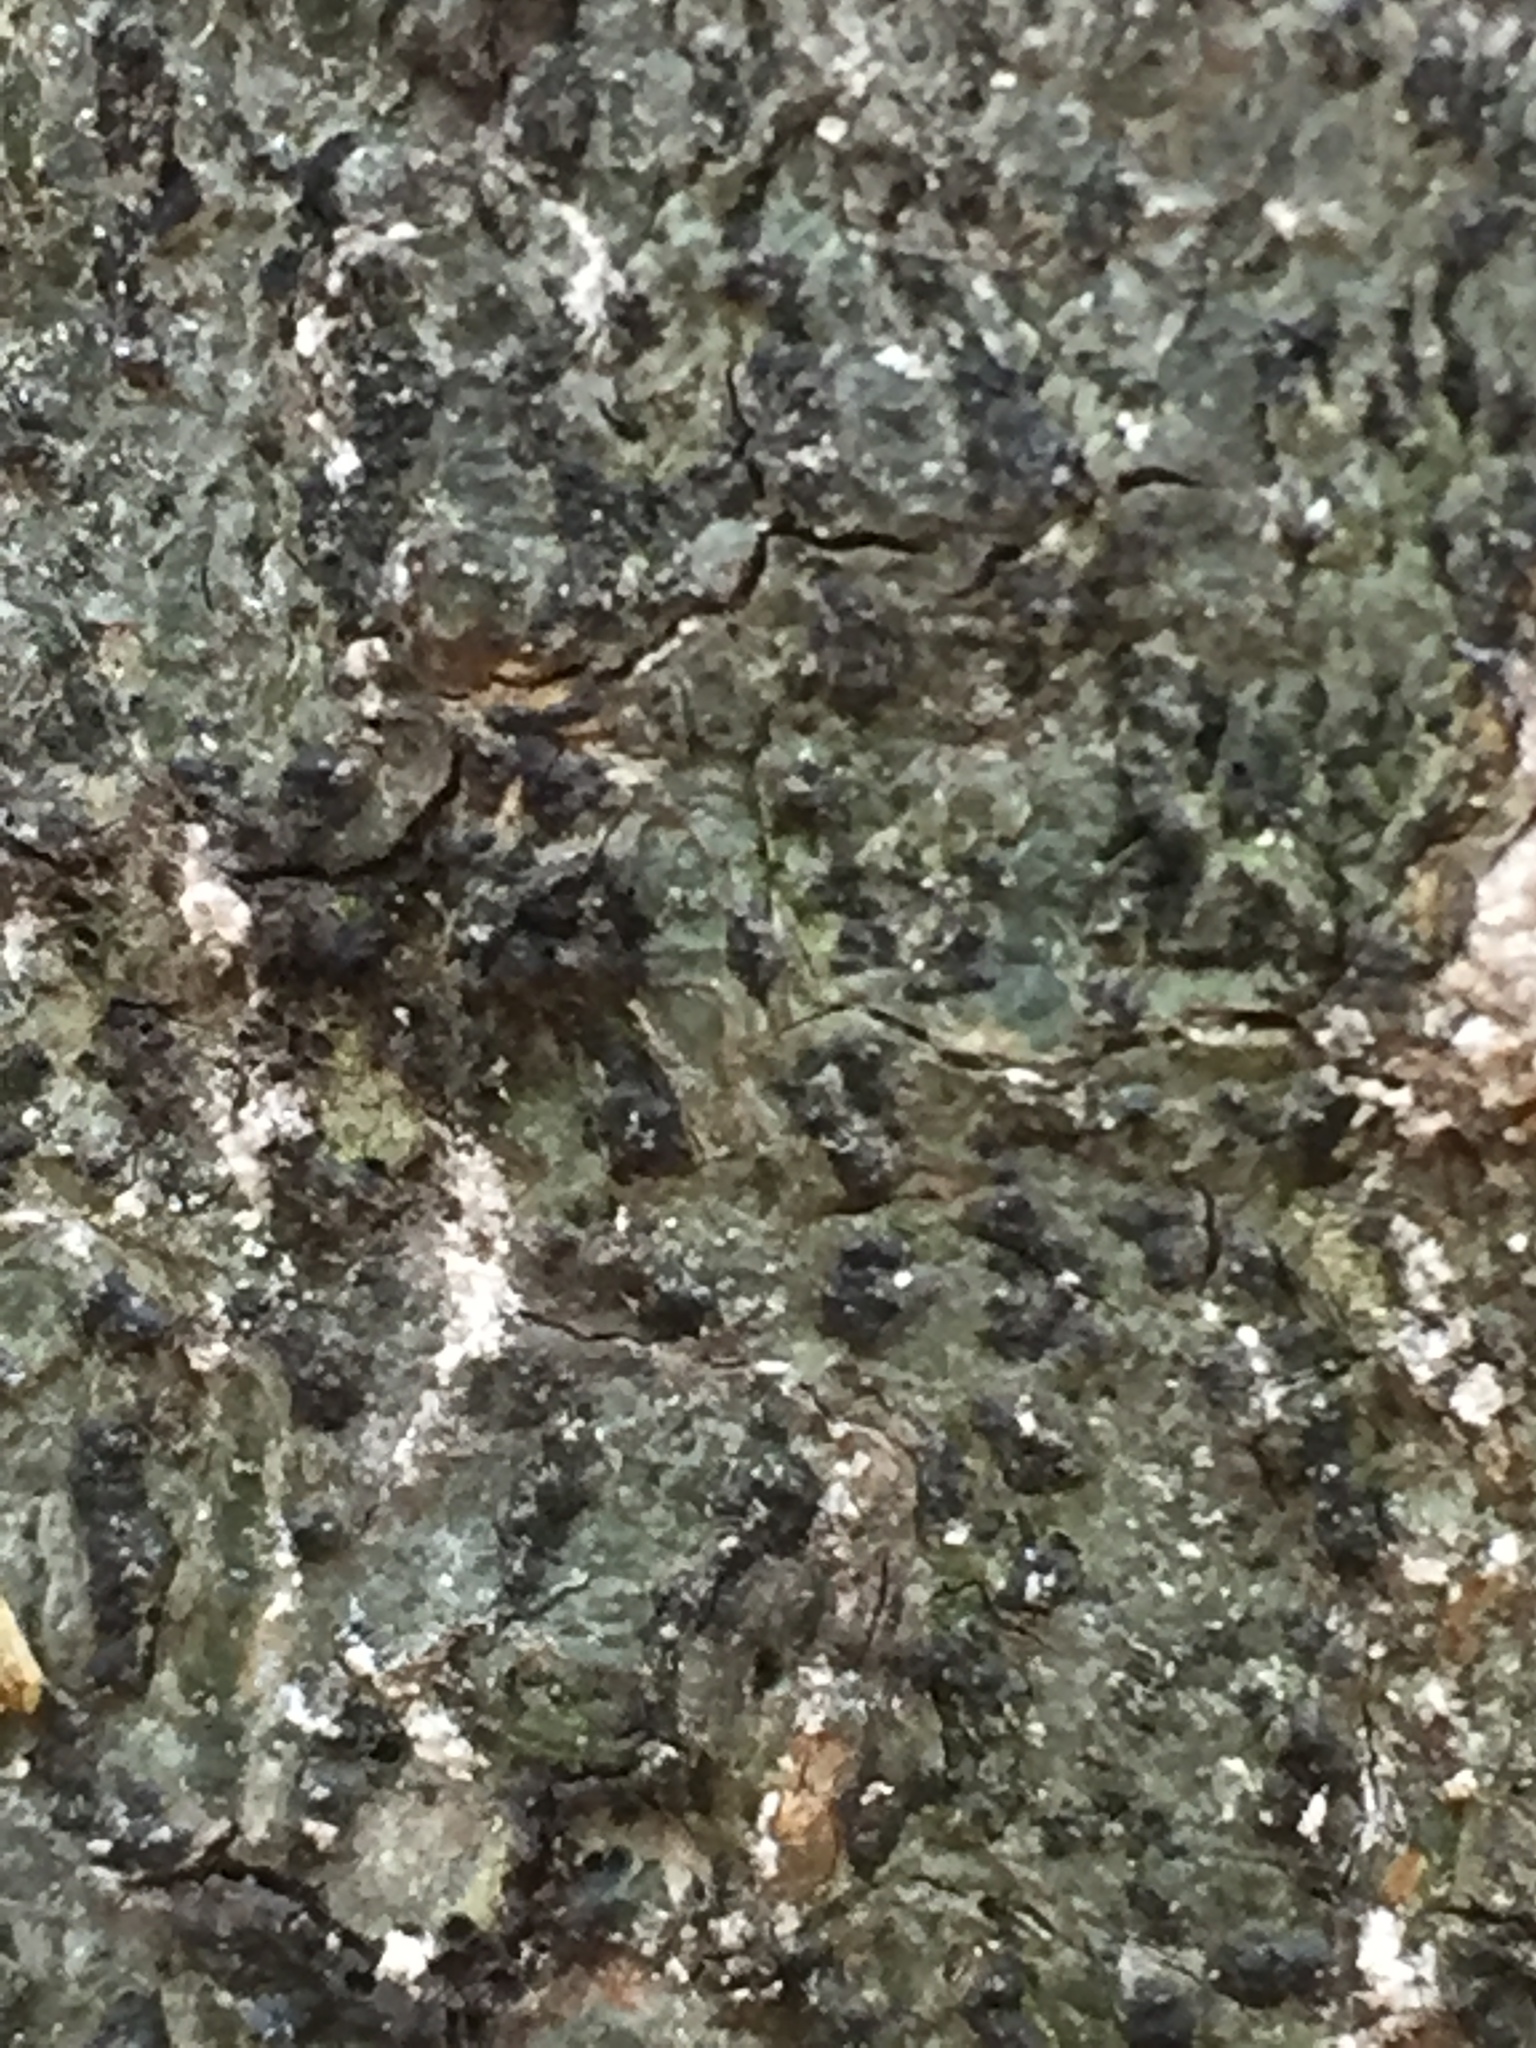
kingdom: Fungi
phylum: Ascomycota
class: Dothideomycetes
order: Trypetheliales
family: Trypetheliaceae
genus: Viridothelium
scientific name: Viridothelium virens
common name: Speckled blister lichen
